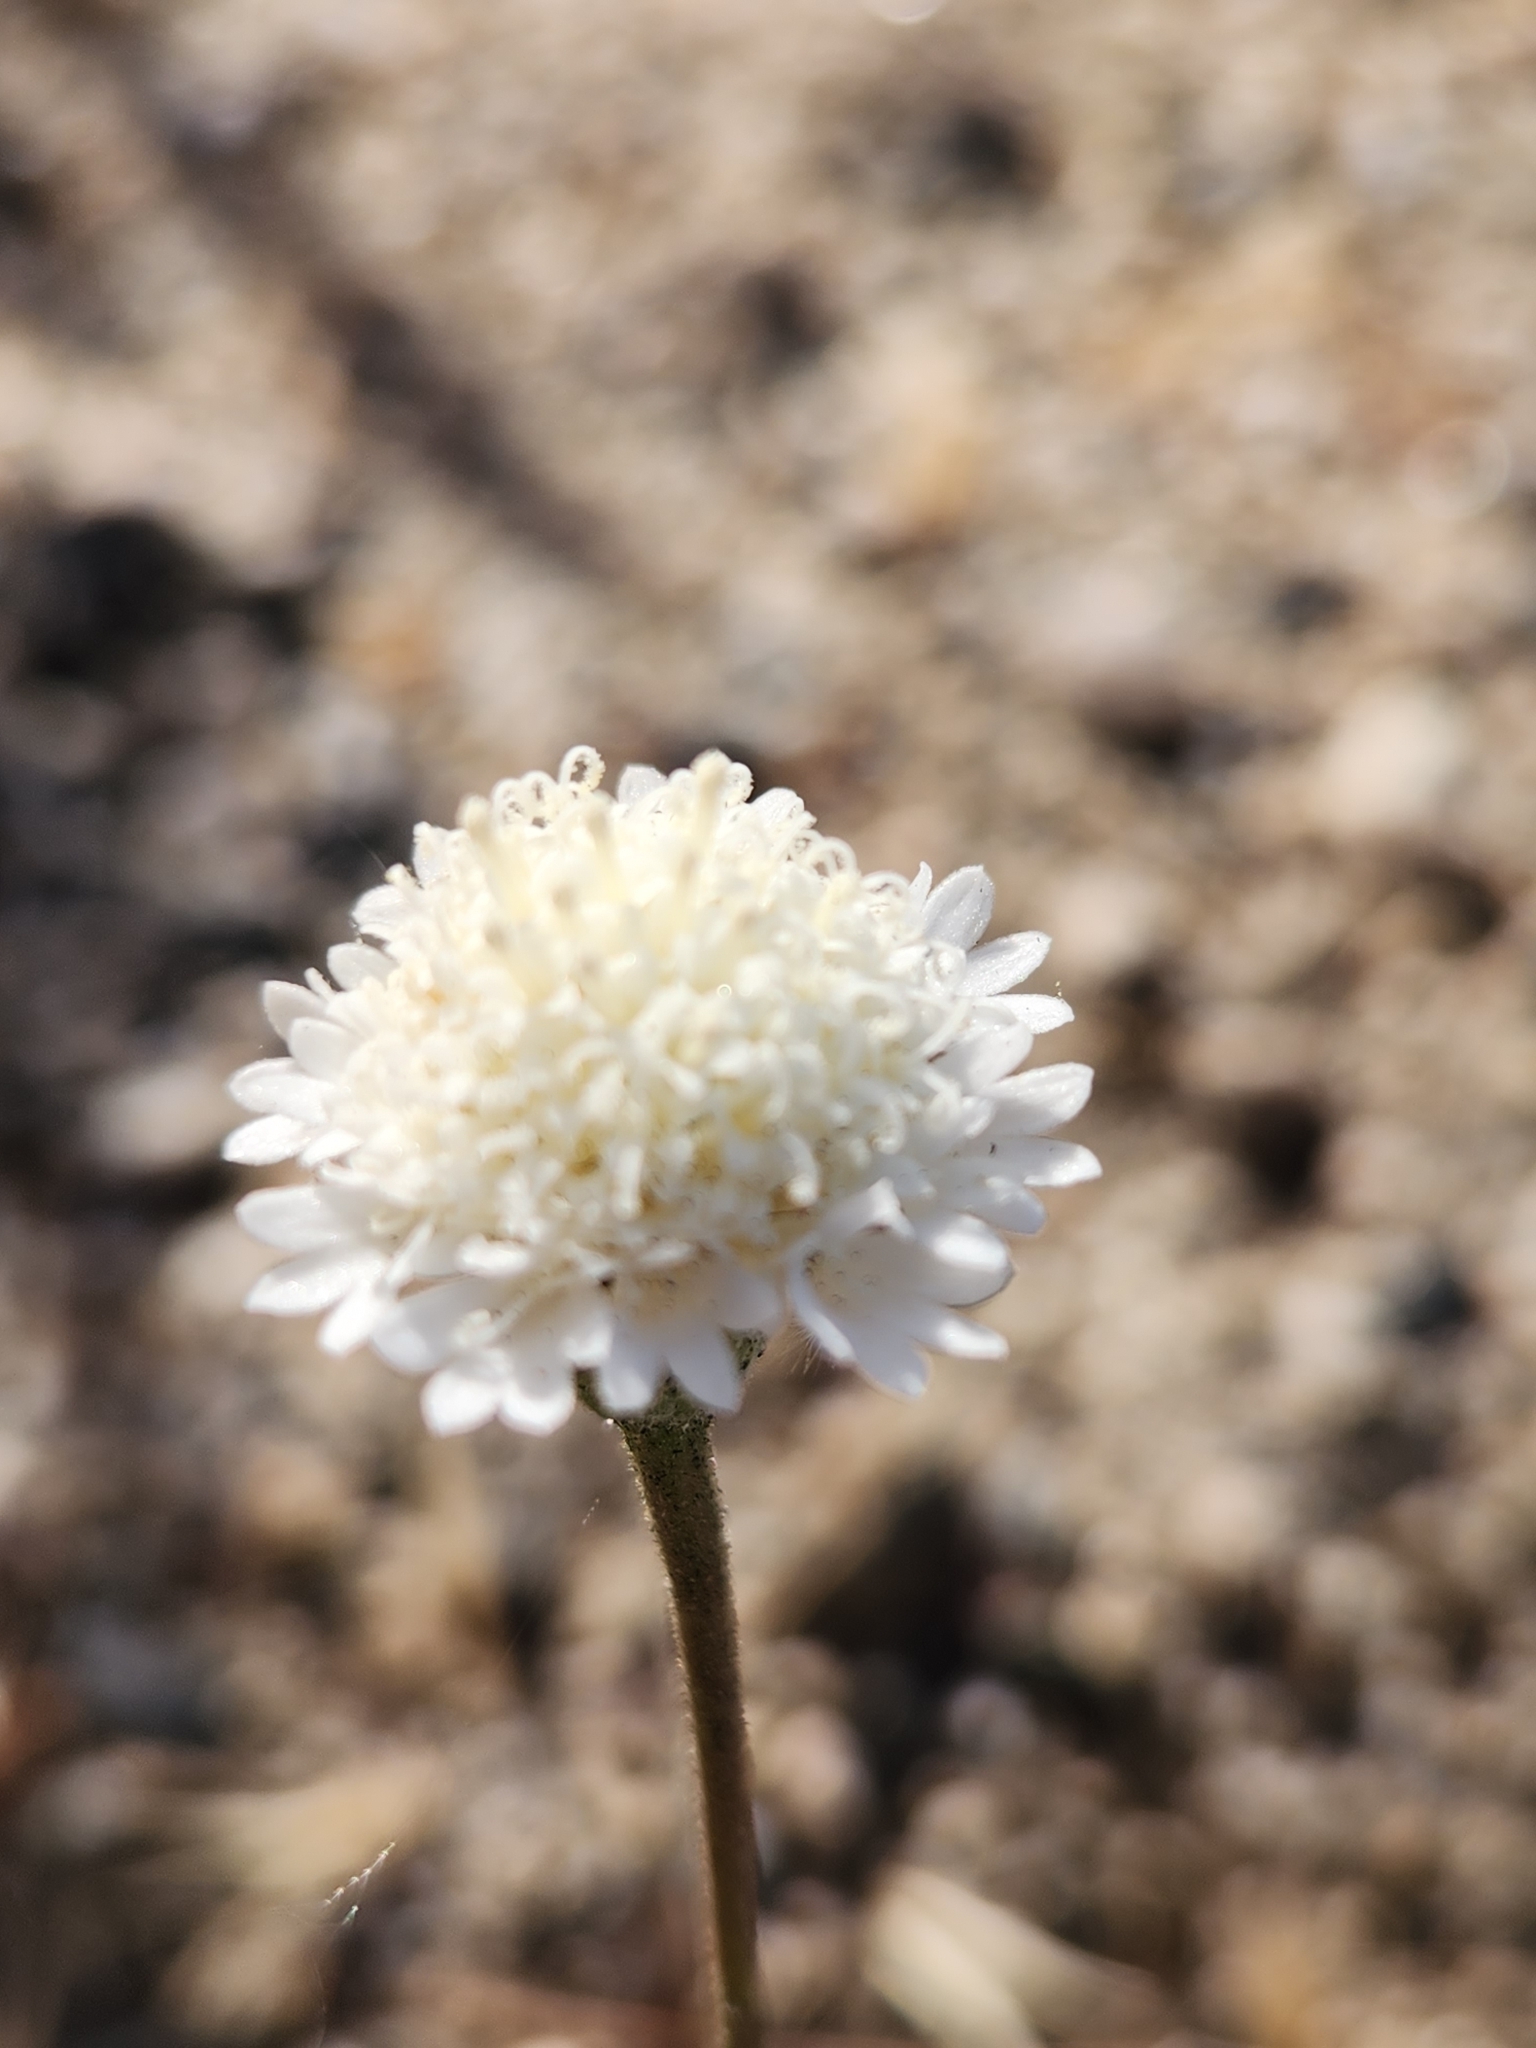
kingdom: Plantae
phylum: Tracheophyta
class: Magnoliopsida
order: Asterales
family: Asteraceae
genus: Chaenactis
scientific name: Chaenactis fremontii
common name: Fremont pincushion
